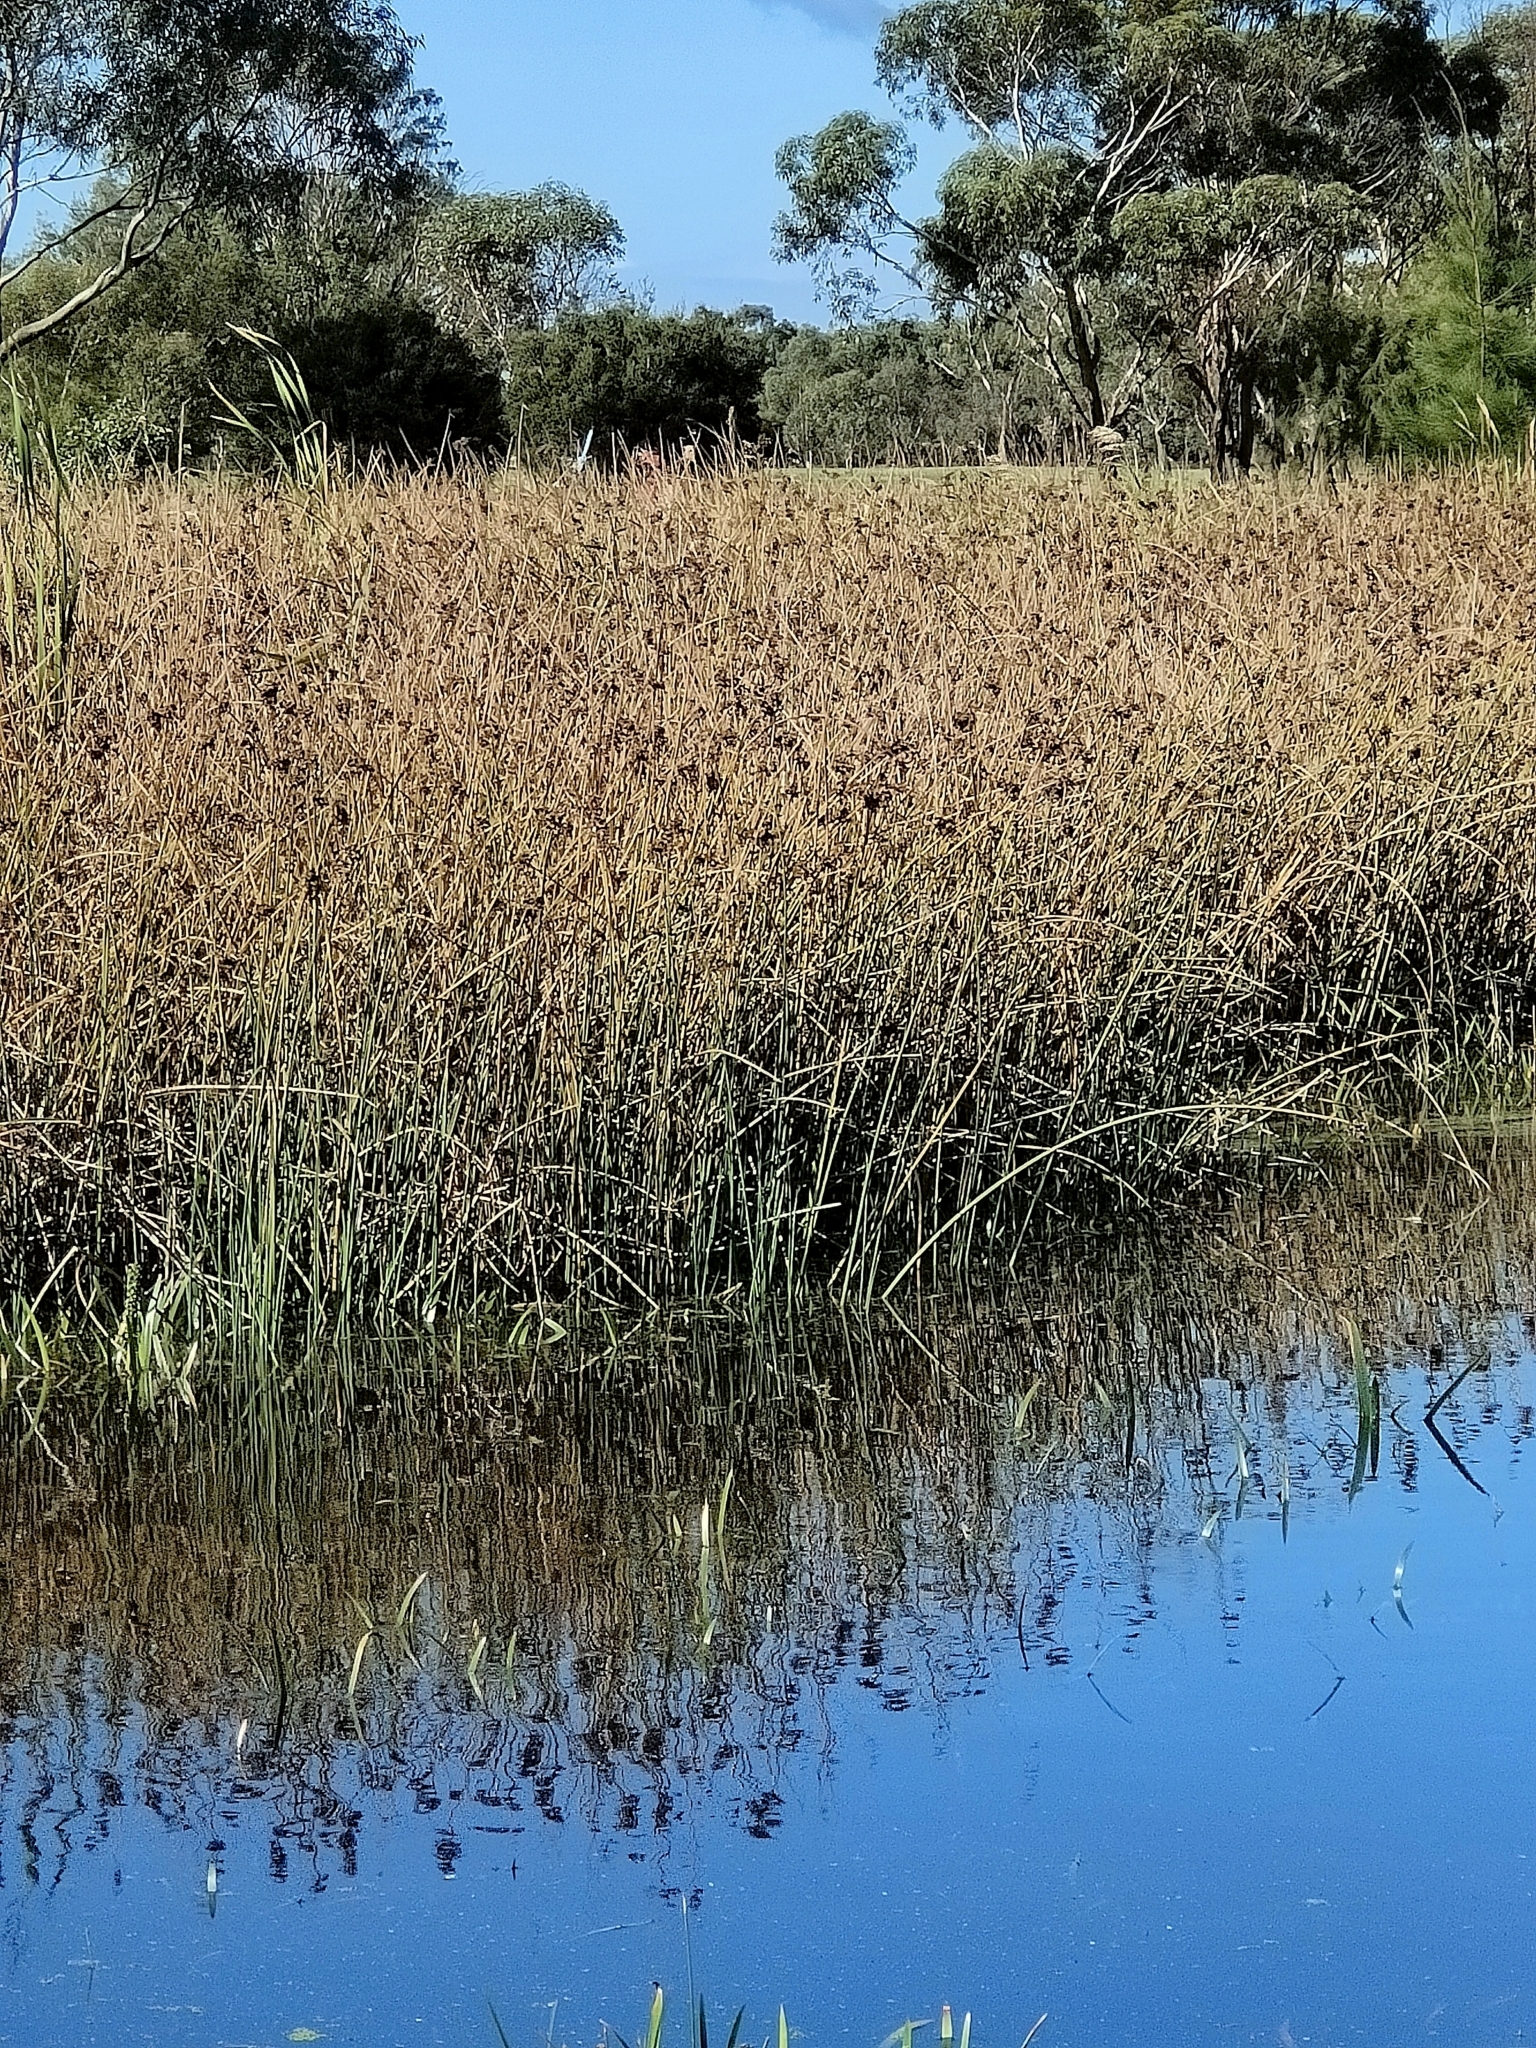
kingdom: Plantae
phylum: Tracheophyta
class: Liliopsida
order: Poales
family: Poaceae
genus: Phragmites
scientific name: Phragmites australis
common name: Common reed
